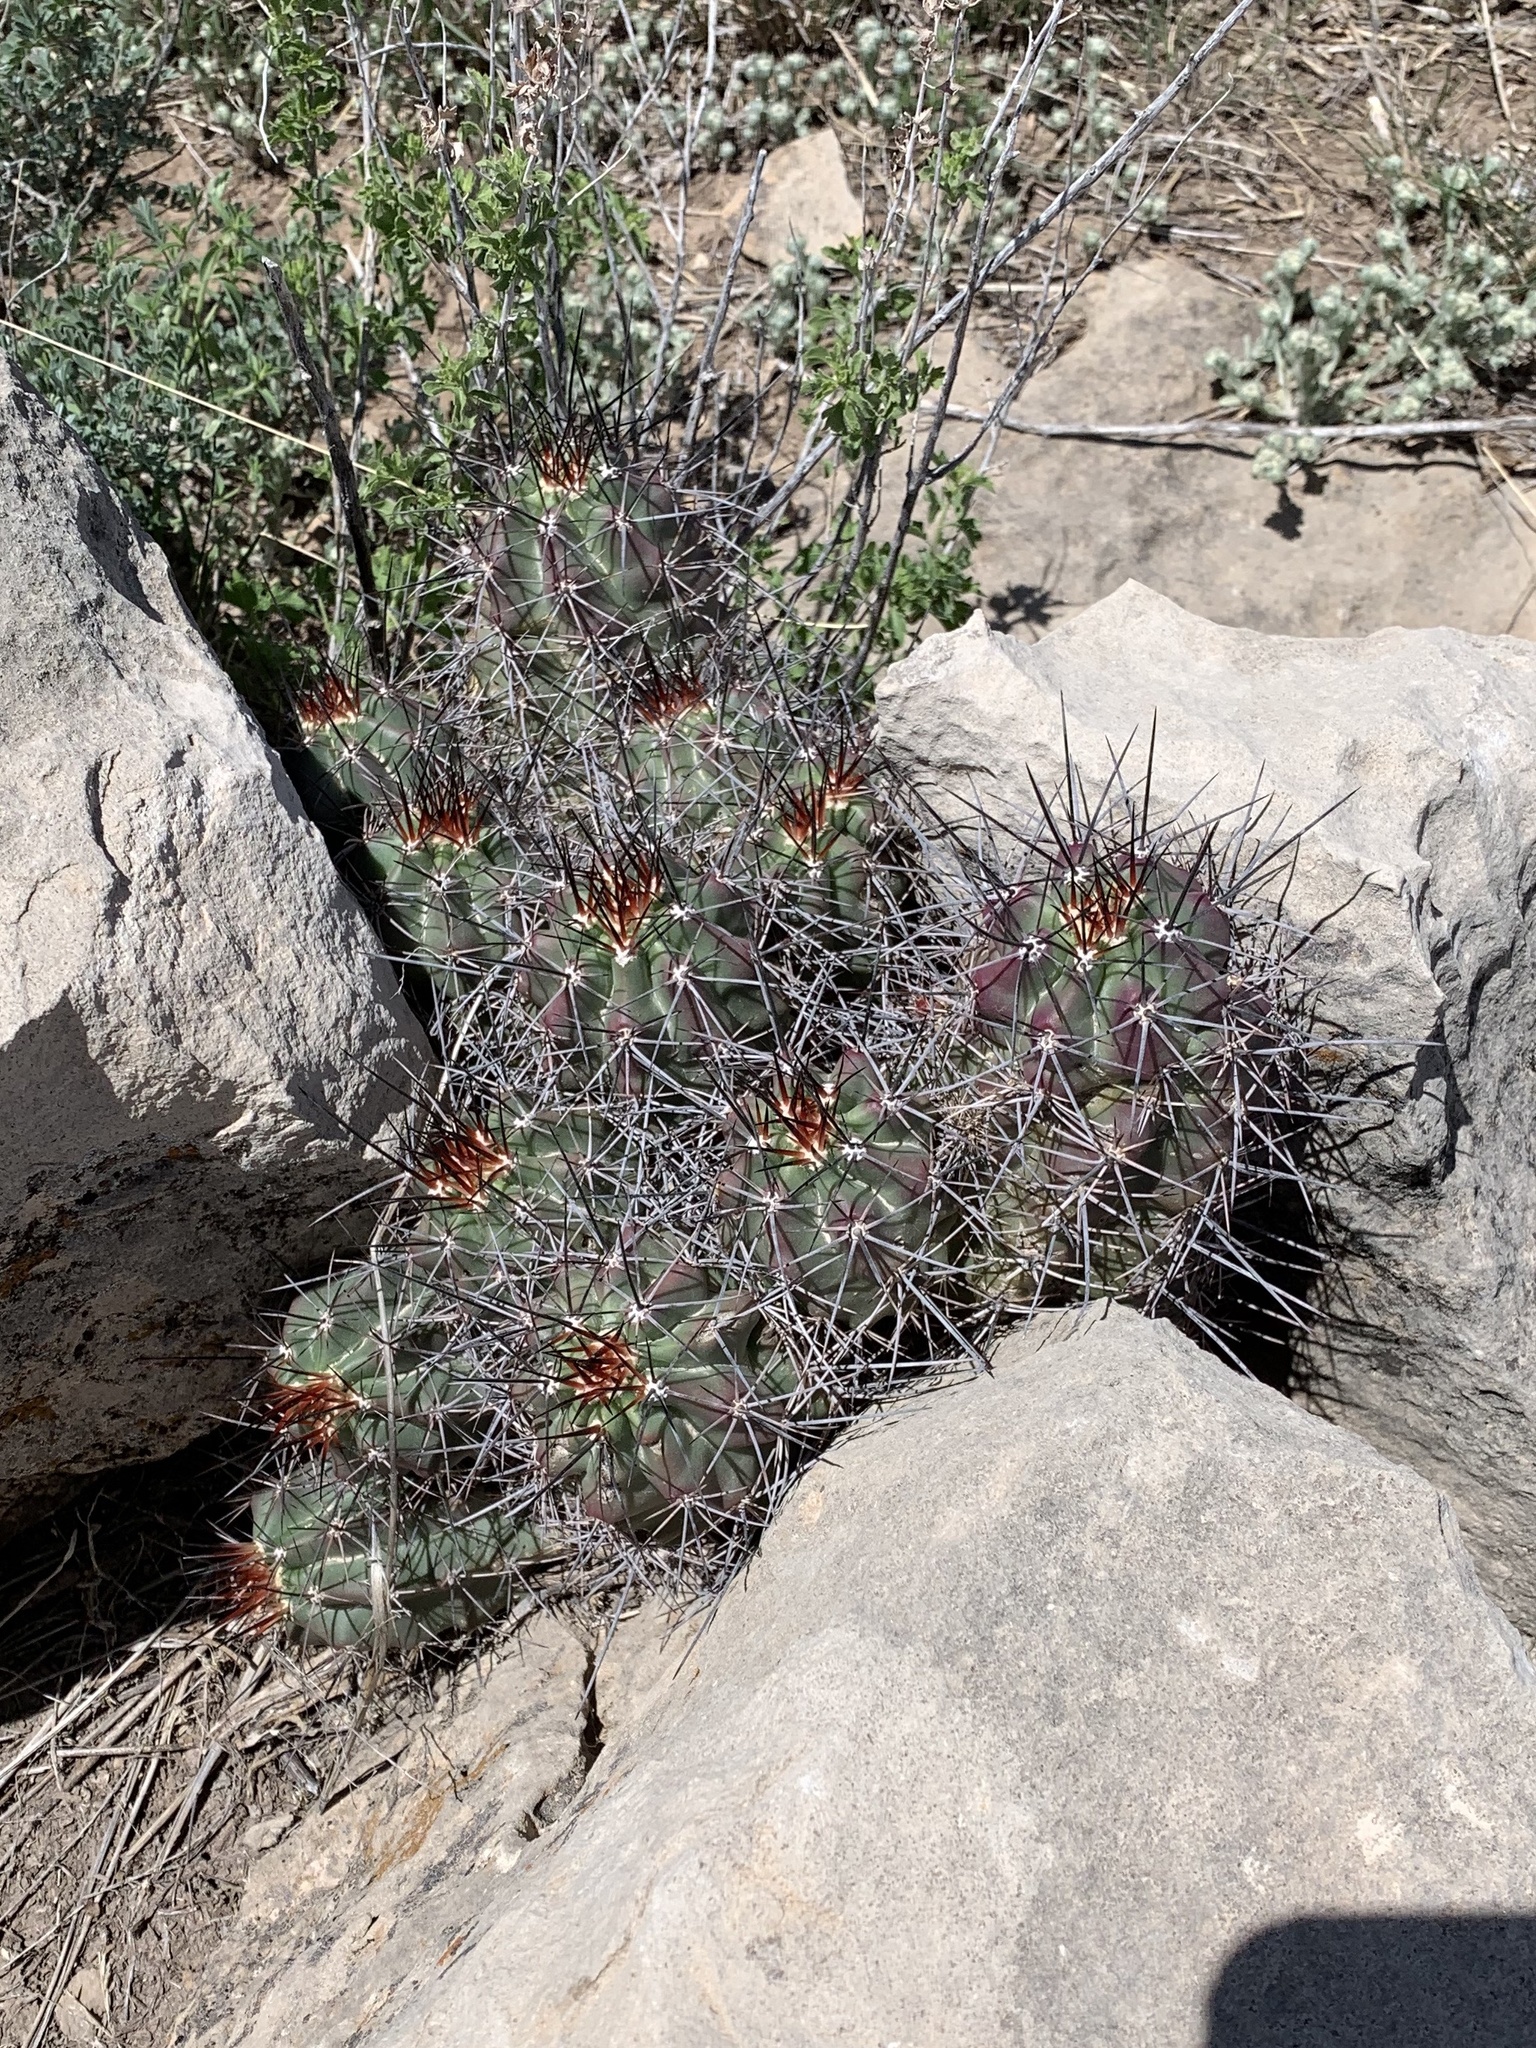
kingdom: Plantae
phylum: Tracheophyta
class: Magnoliopsida
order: Caryophyllales
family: Cactaceae
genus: Echinocereus
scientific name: Echinocereus coccineus
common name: Scarlet hedgehog cactus
